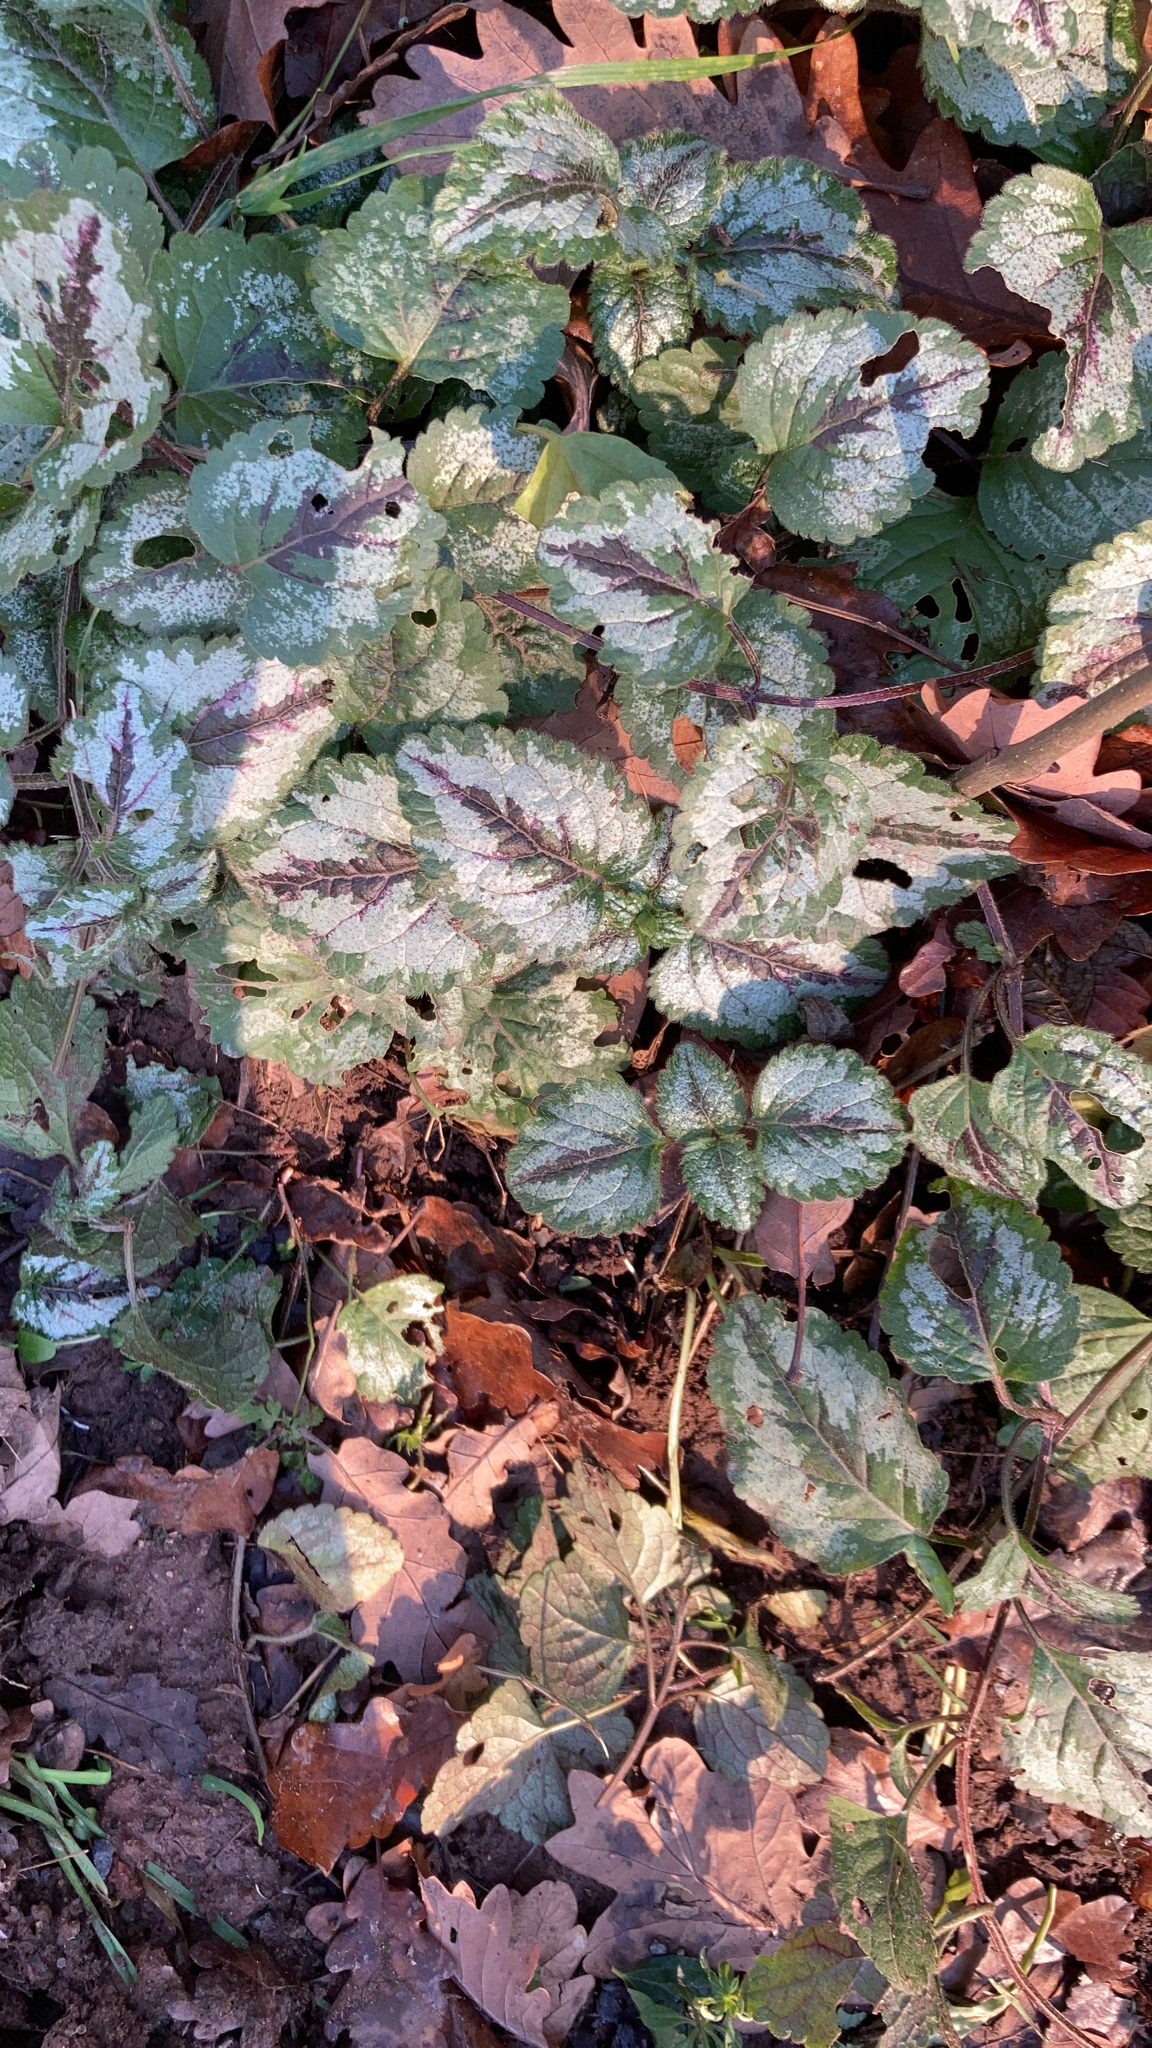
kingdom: Plantae
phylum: Tracheophyta
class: Magnoliopsida
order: Lamiales
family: Lamiaceae
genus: Lamium
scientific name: Lamium galeobdolon
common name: Yellow archangel
